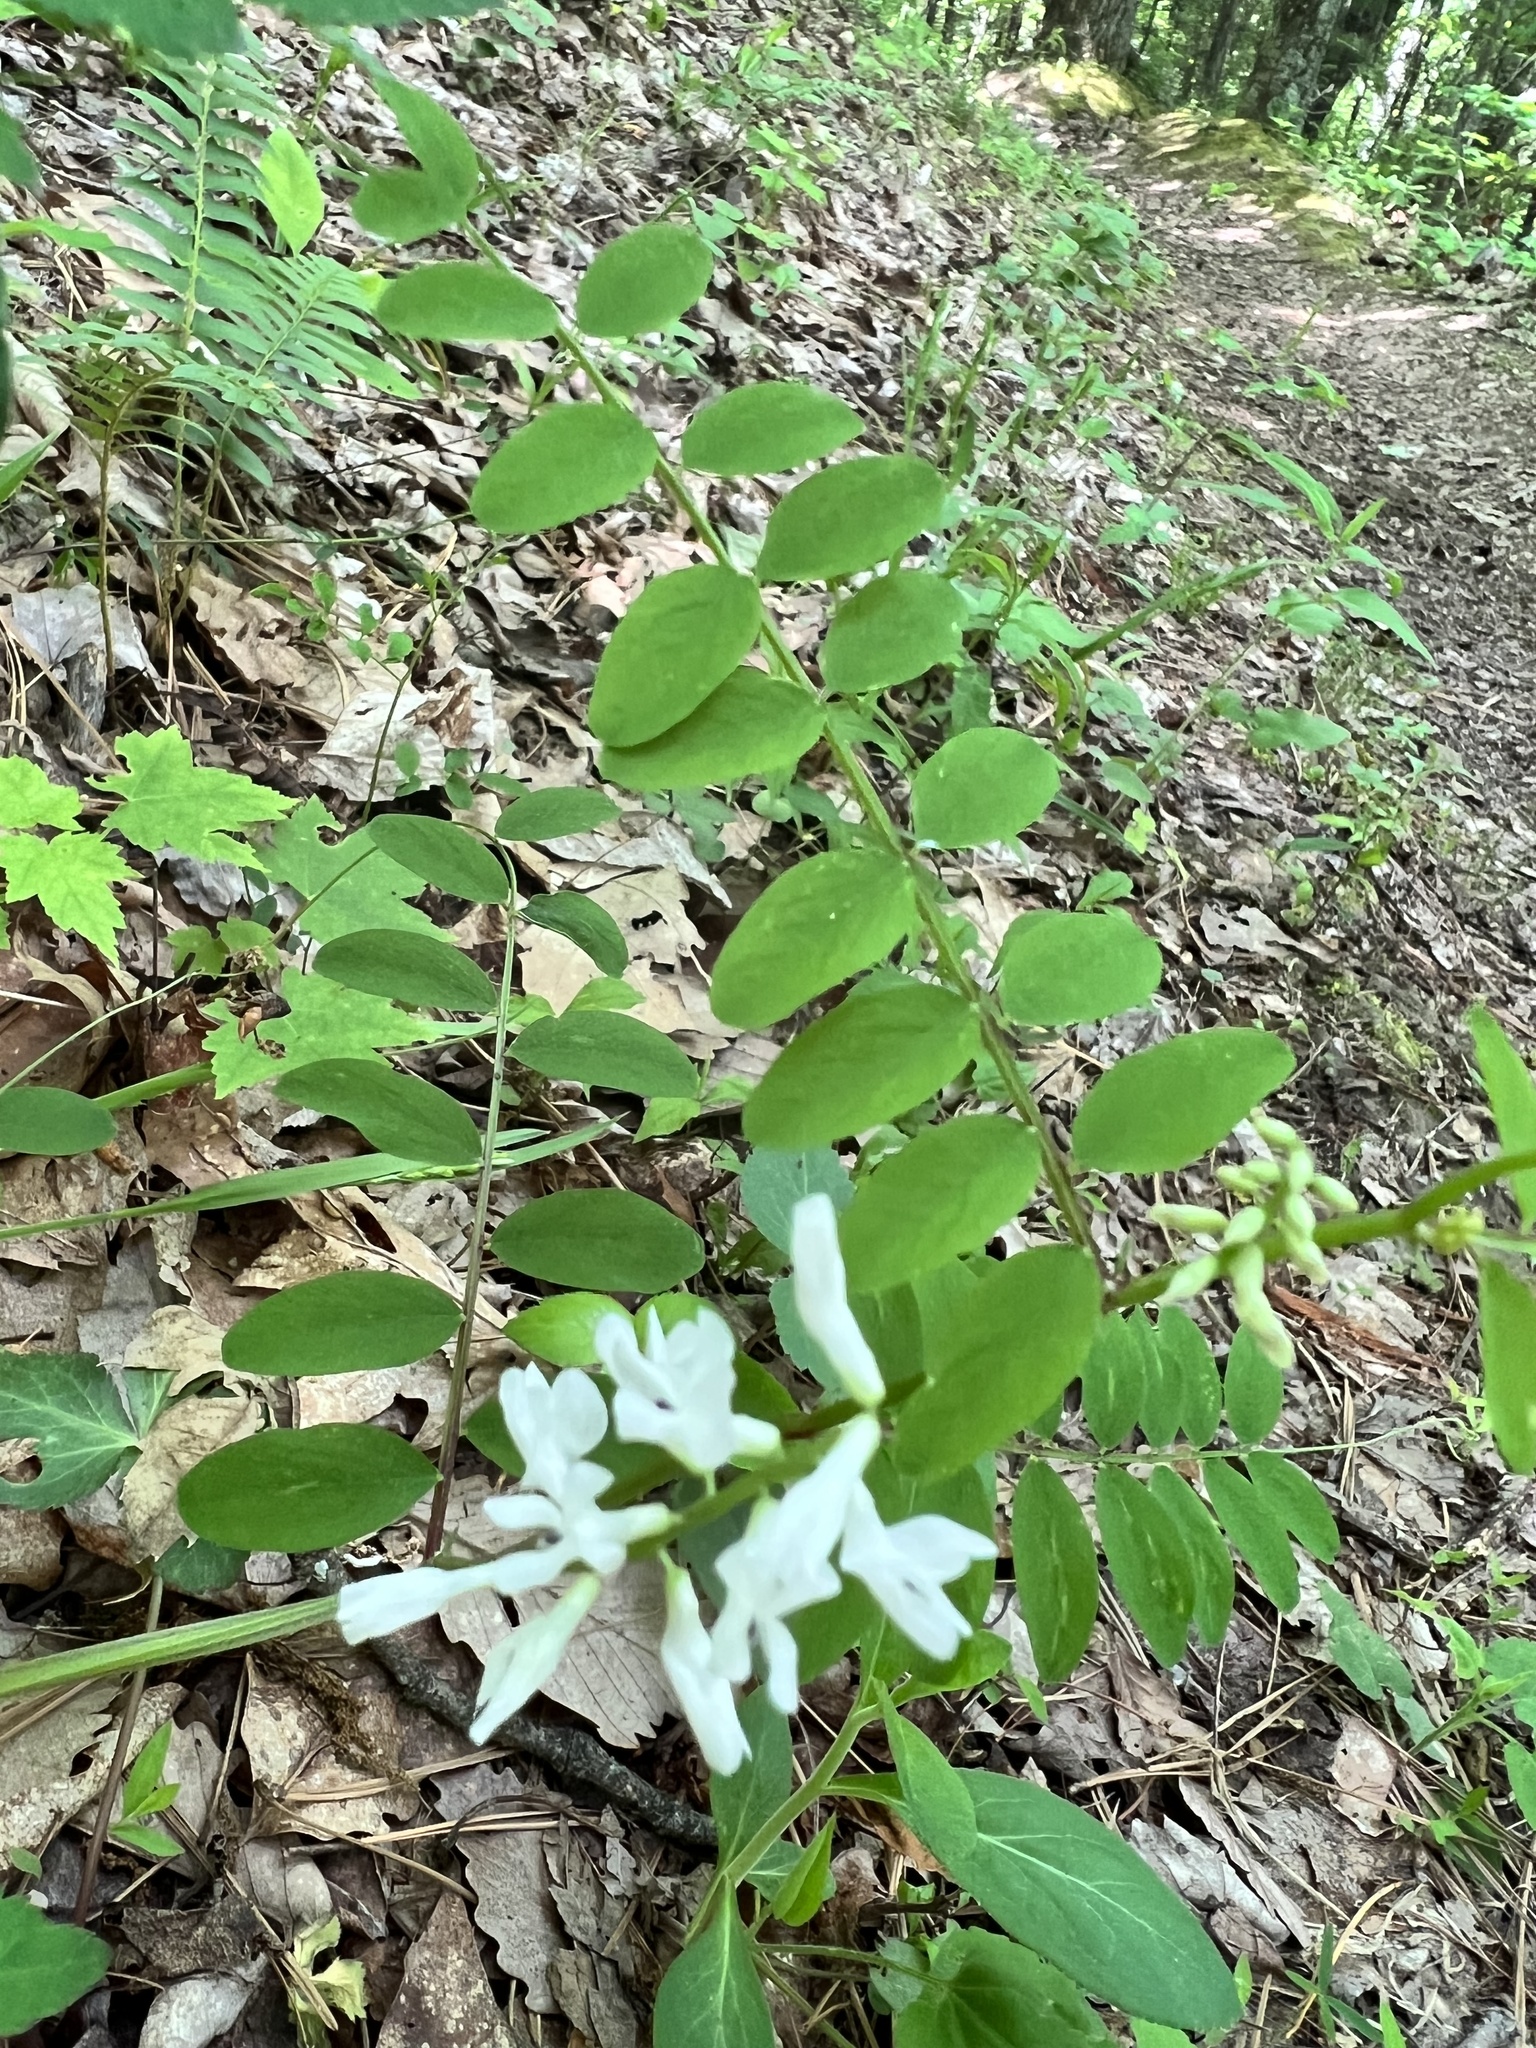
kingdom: Plantae
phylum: Tracheophyta
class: Magnoliopsida
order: Fabales
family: Fabaceae
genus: Vicia
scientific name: Vicia caroliniana
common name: Carolina vetch
